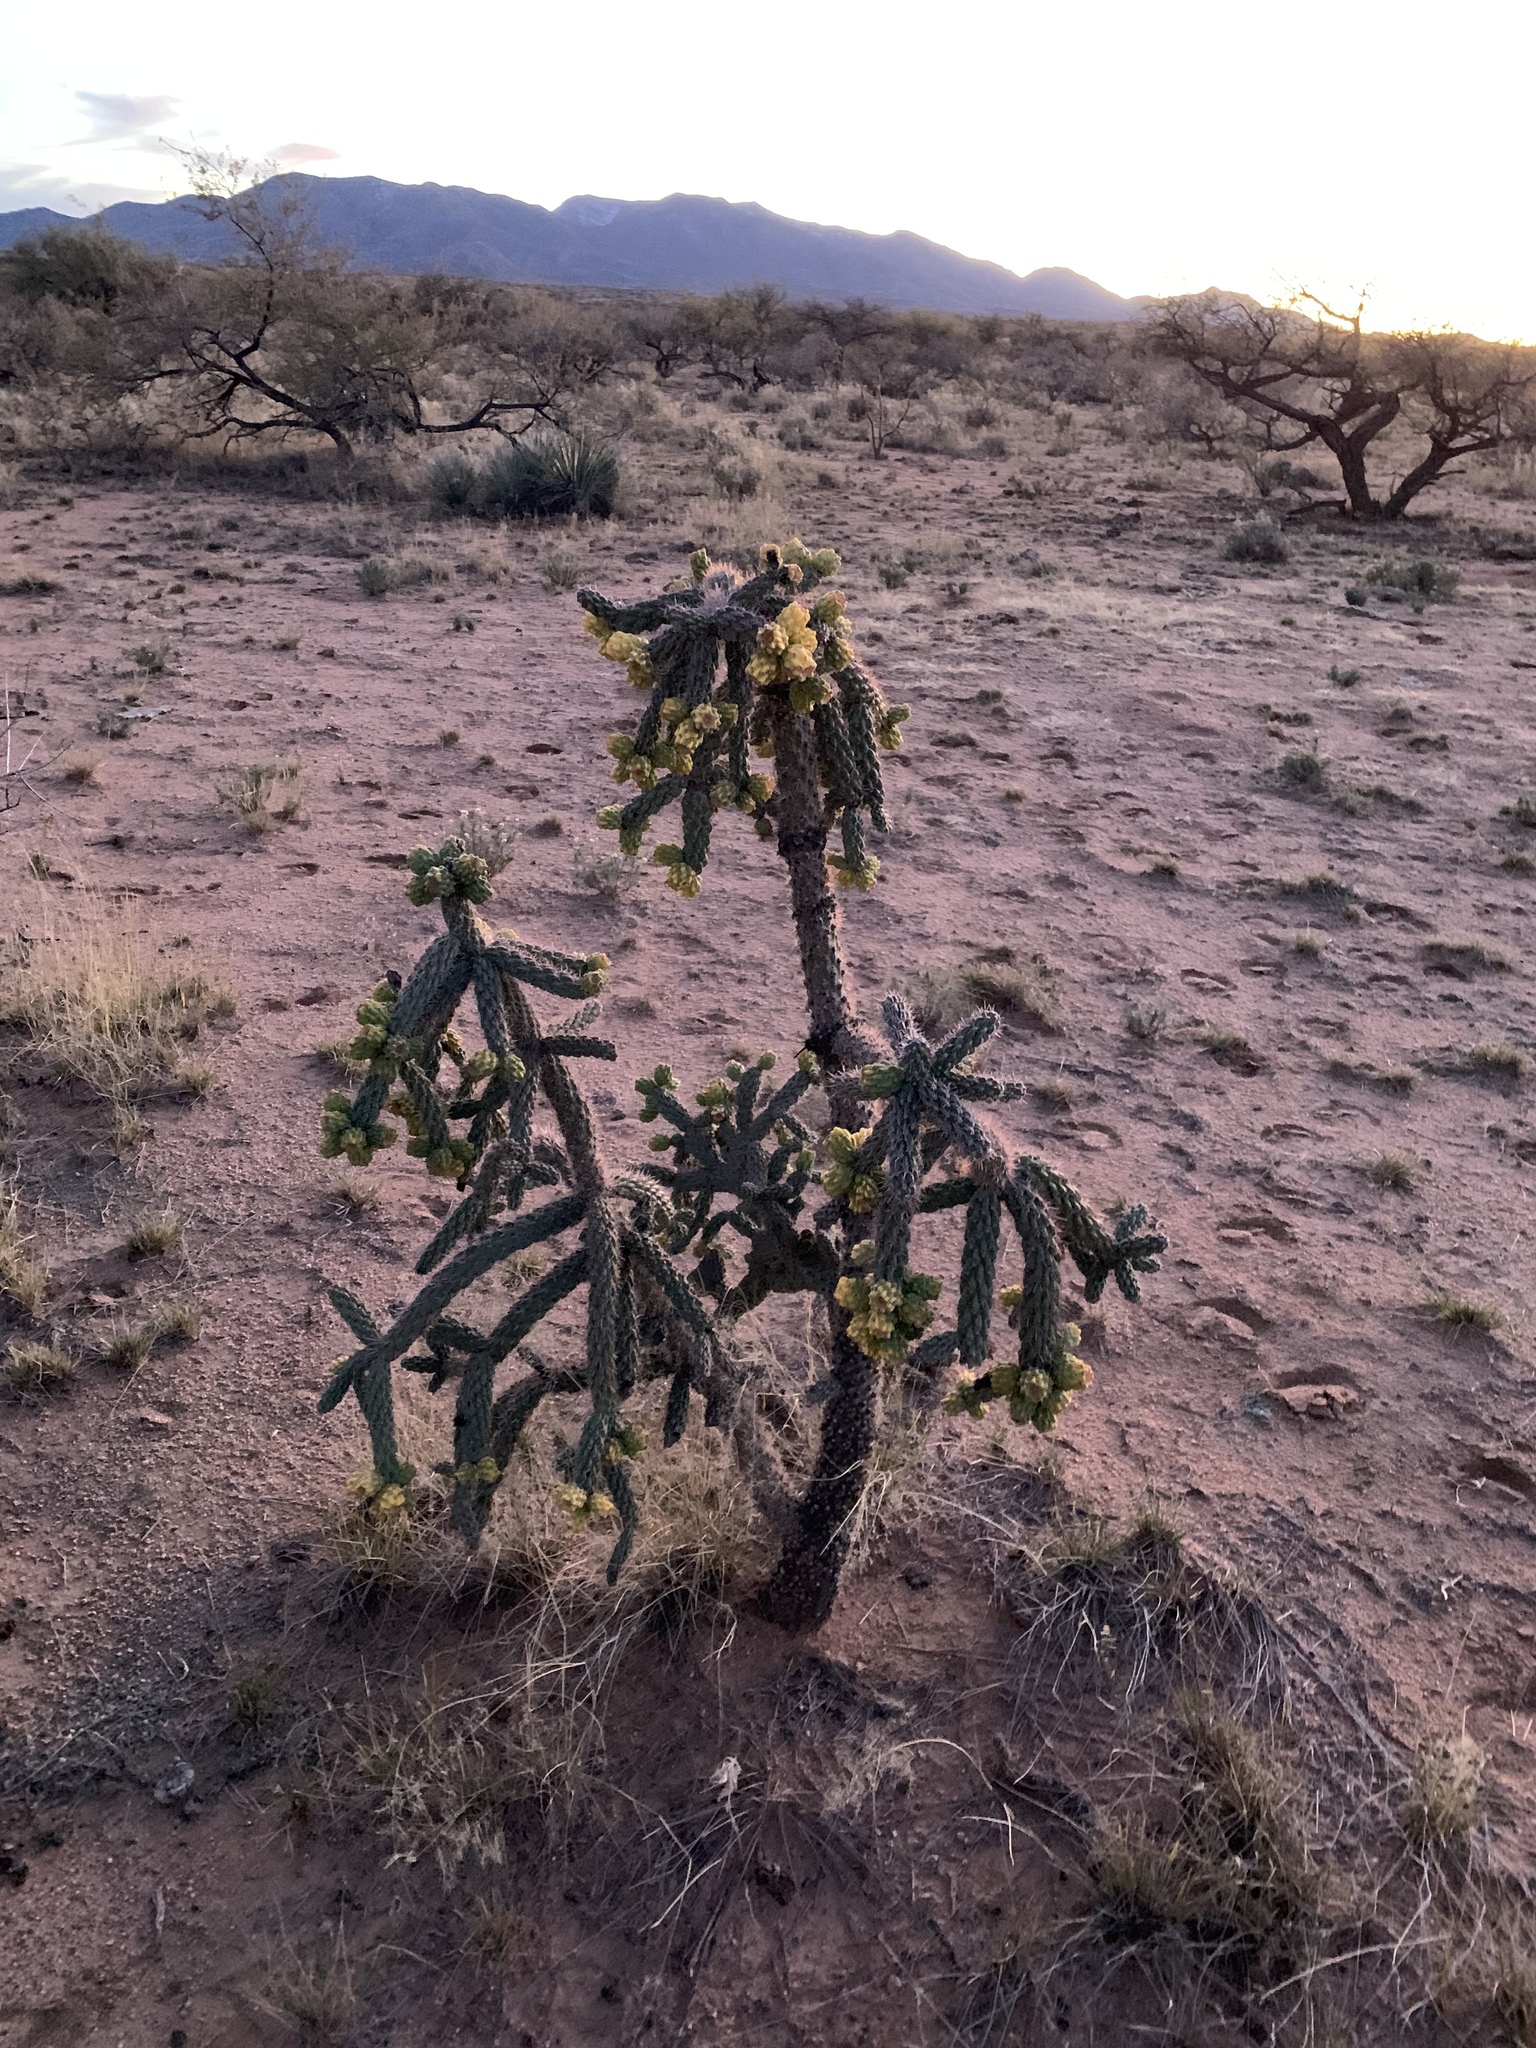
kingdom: Plantae
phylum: Tracheophyta
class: Magnoliopsida
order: Caryophyllales
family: Cactaceae
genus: Cylindropuntia
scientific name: Cylindropuntia imbricata
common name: Candelabrum cactus
